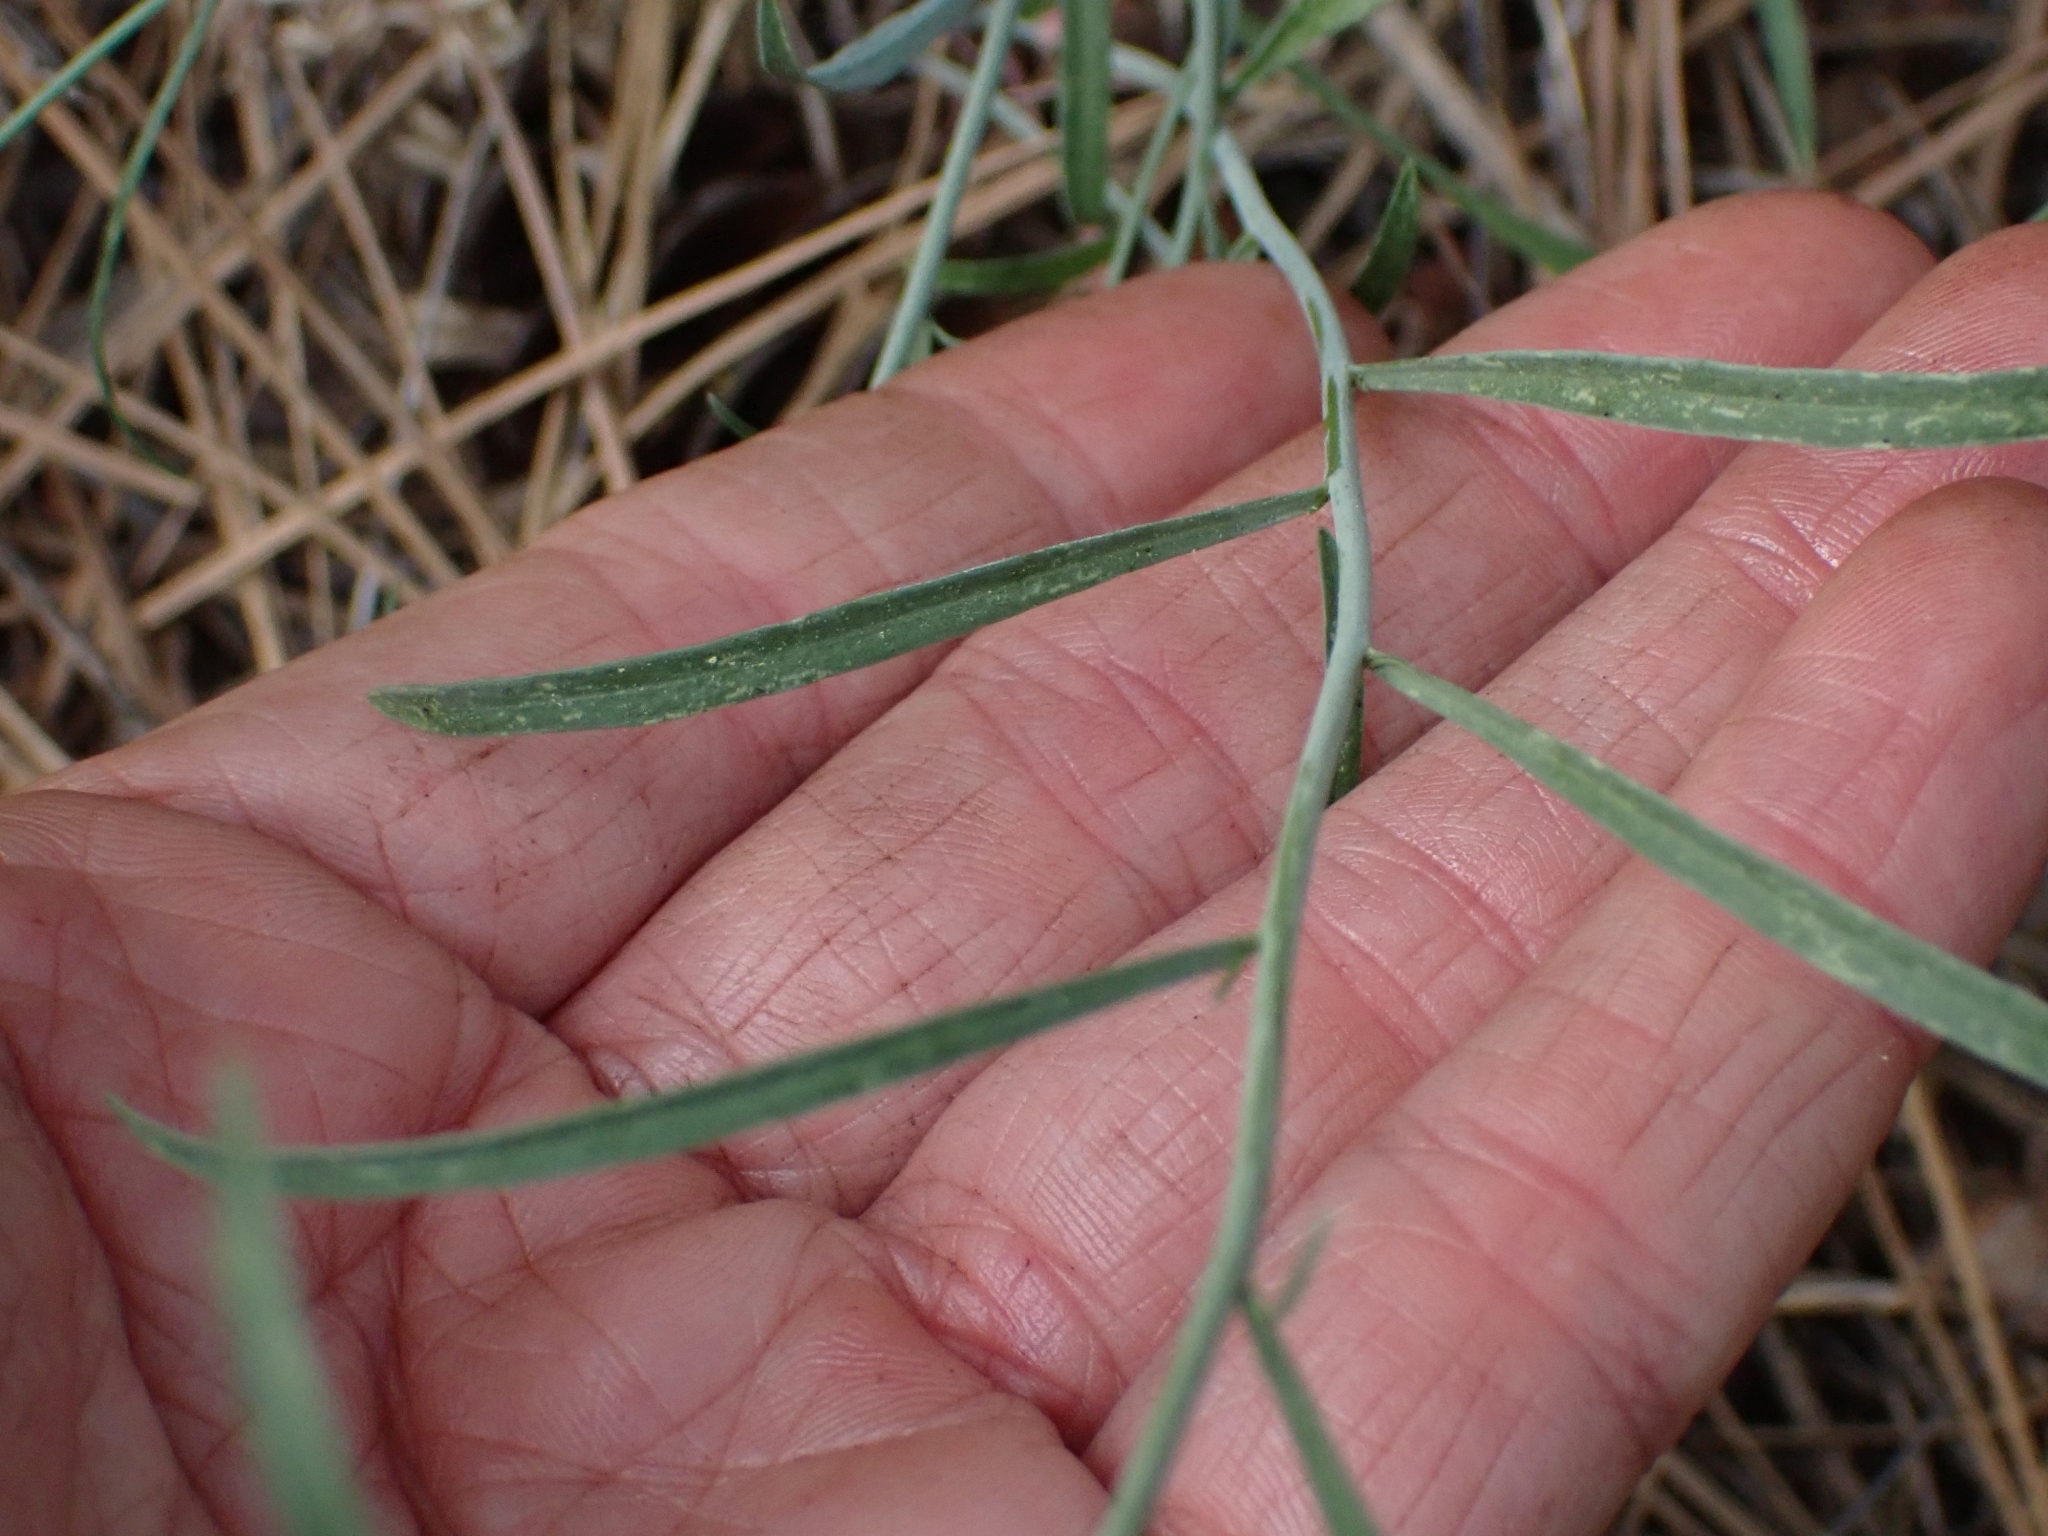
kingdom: Plantae
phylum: Tracheophyta
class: Magnoliopsida
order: Brassicales
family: Brassicaceae
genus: Sisymbrium
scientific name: Sisymbrium linifolium
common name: Salmon river plains mustard
